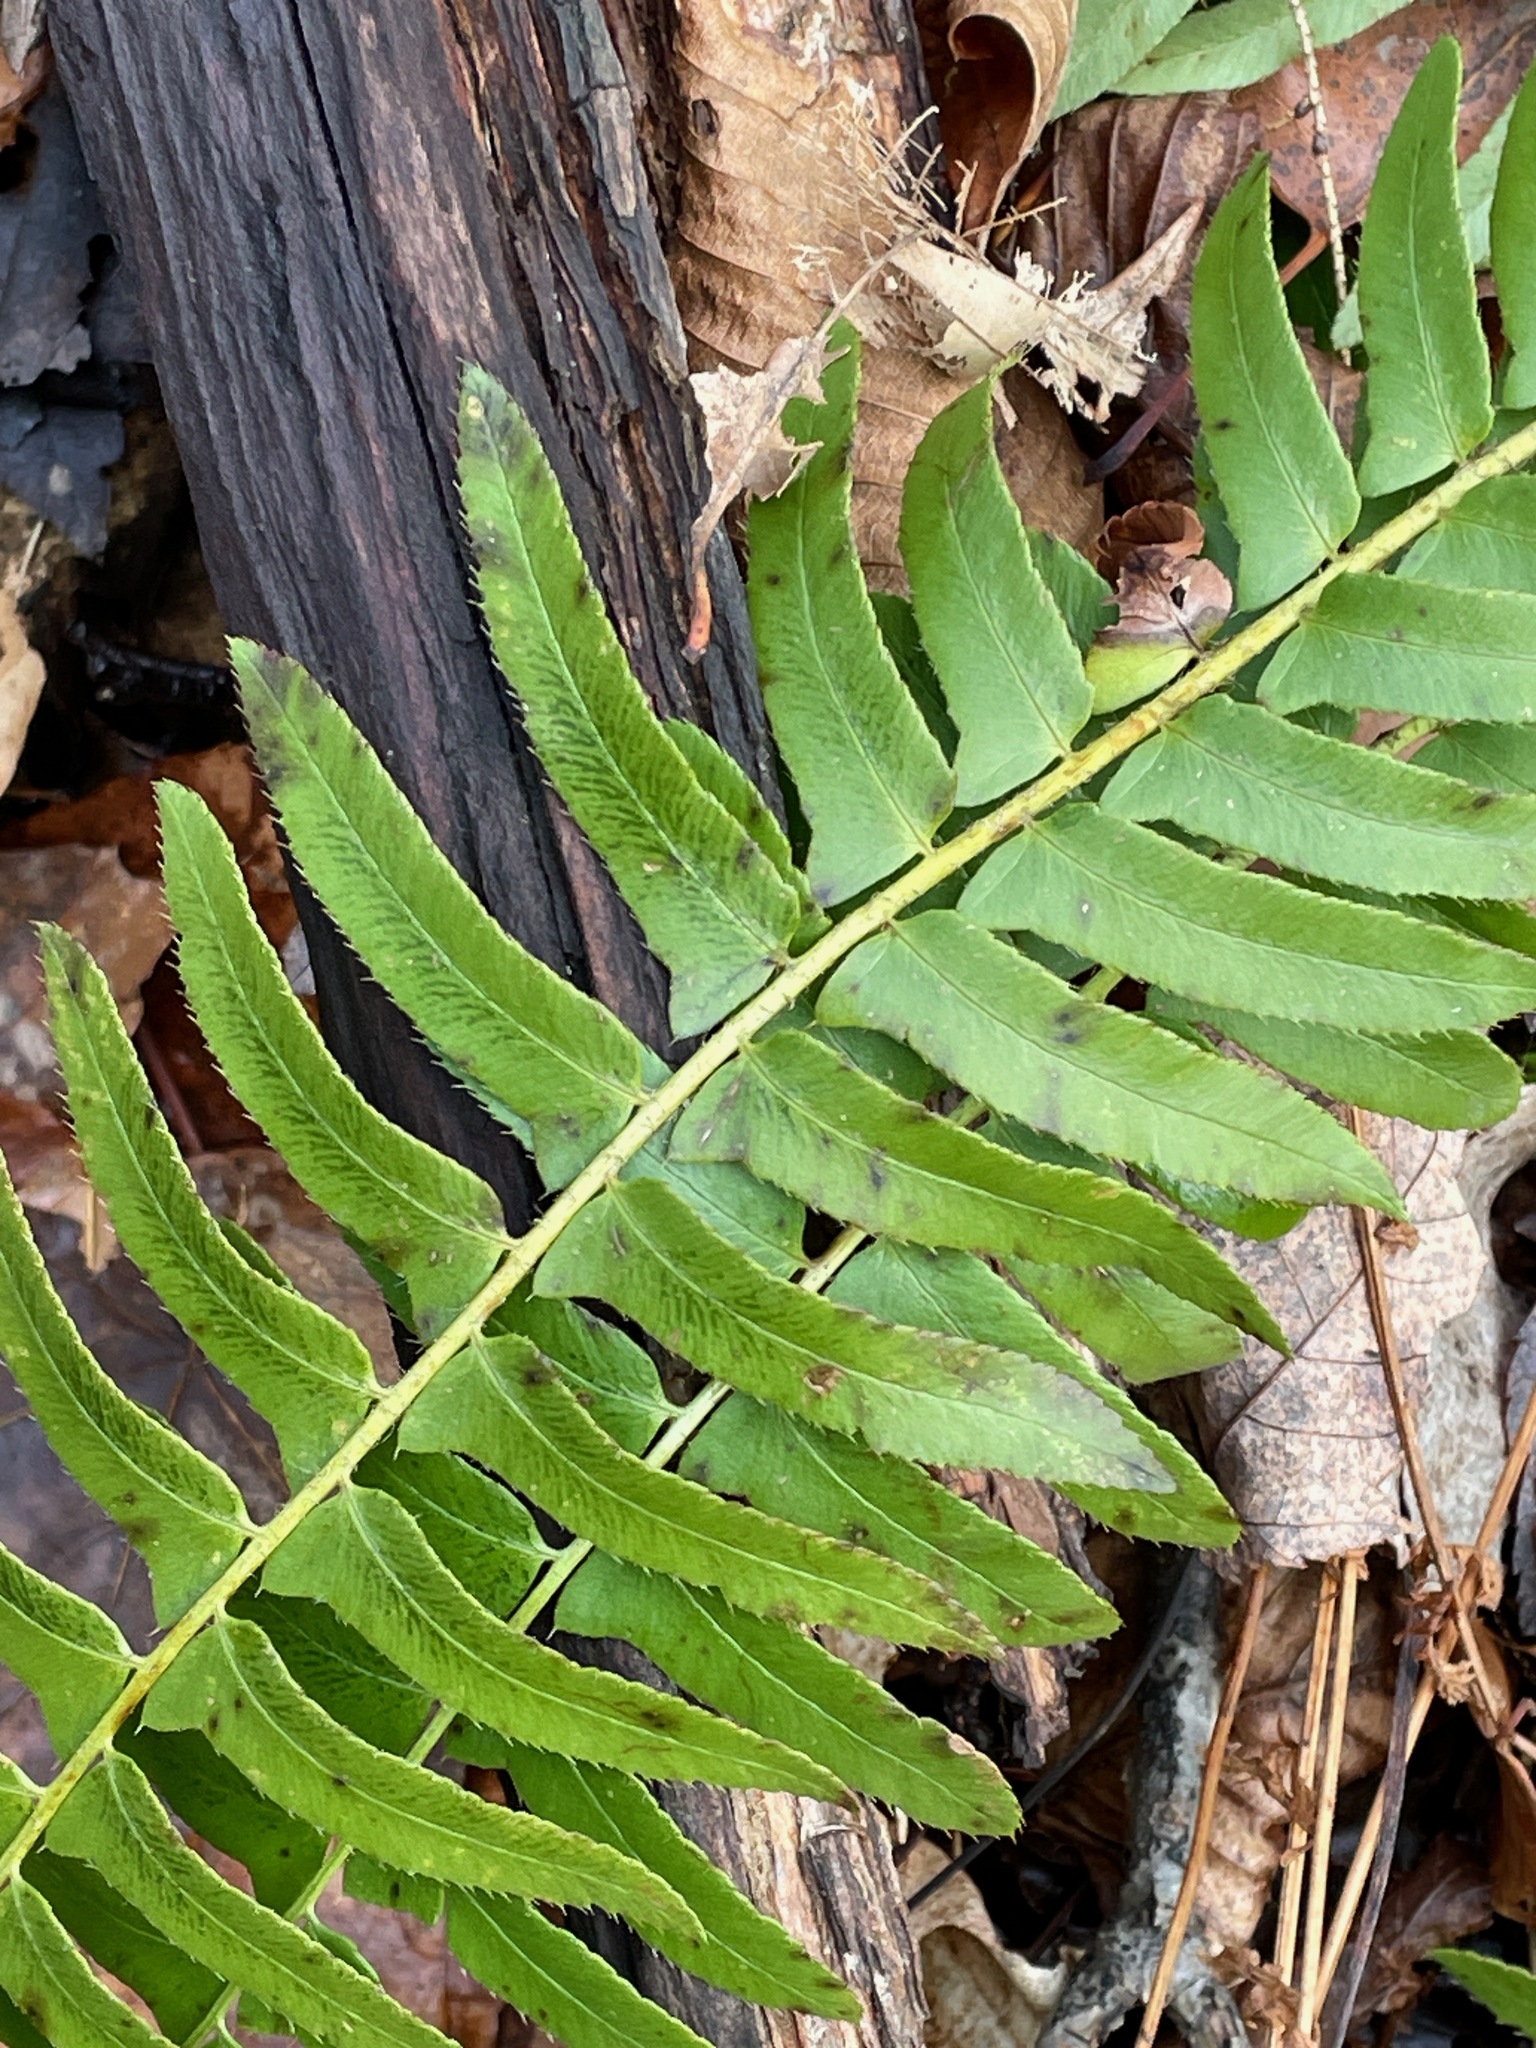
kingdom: Plantae
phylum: Tracheophyta
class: Polypodiopsida
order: Polypodiales
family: Dryopteridaceae
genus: Polystichum
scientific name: Polystichum acrostichoides
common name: Christmas fern
